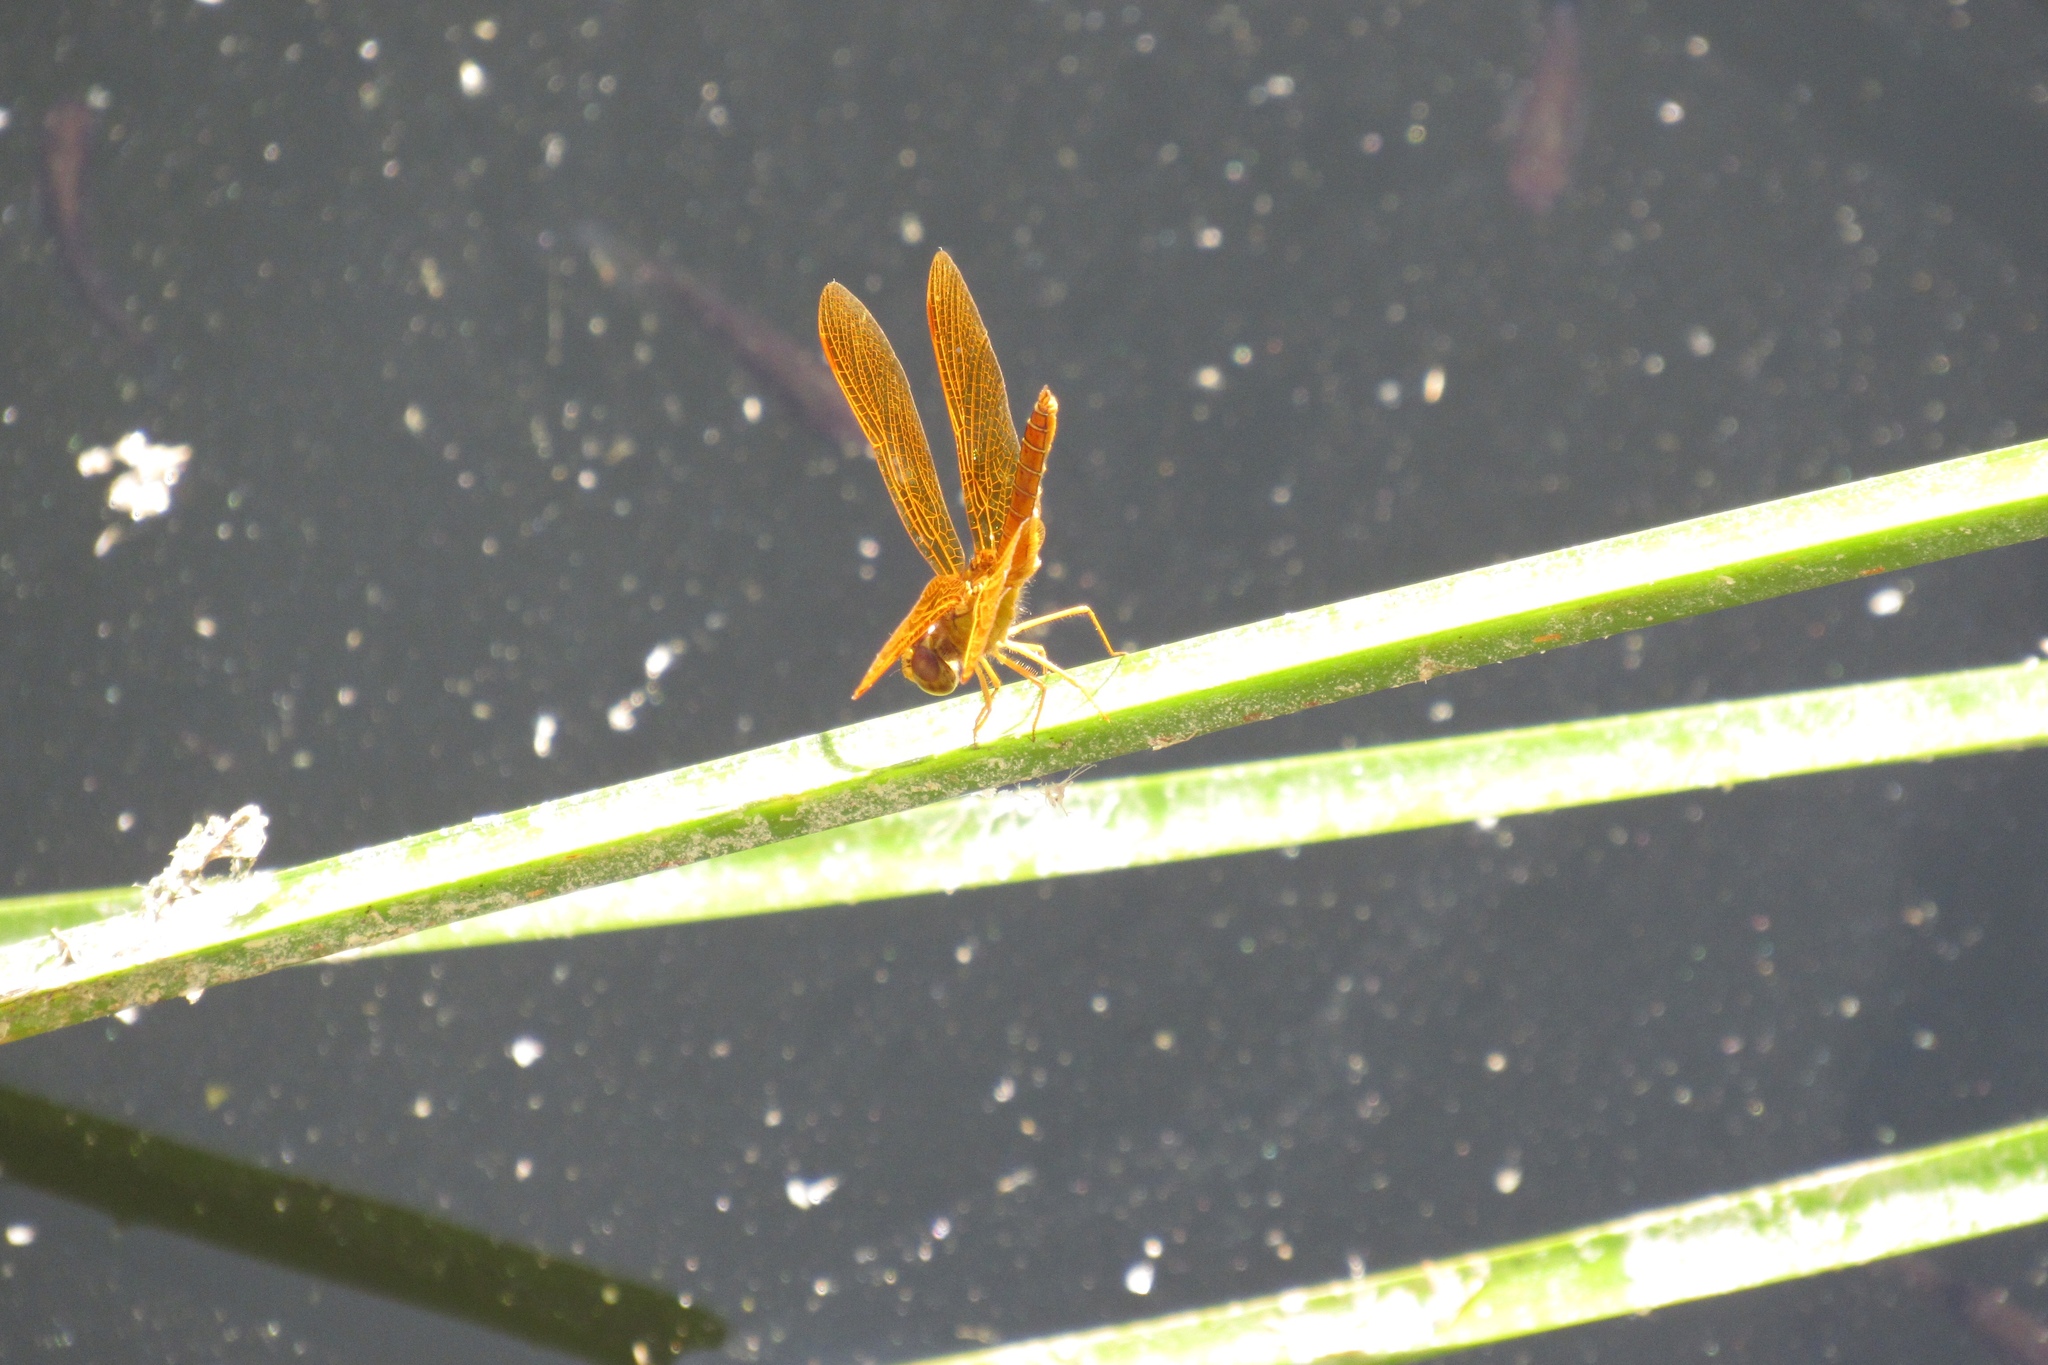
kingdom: Animalia
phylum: Arthropoda
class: Insecta
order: Odonata
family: Libellulidae
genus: Perithemis
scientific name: Perithemis intensa
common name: Mexican amberwing
